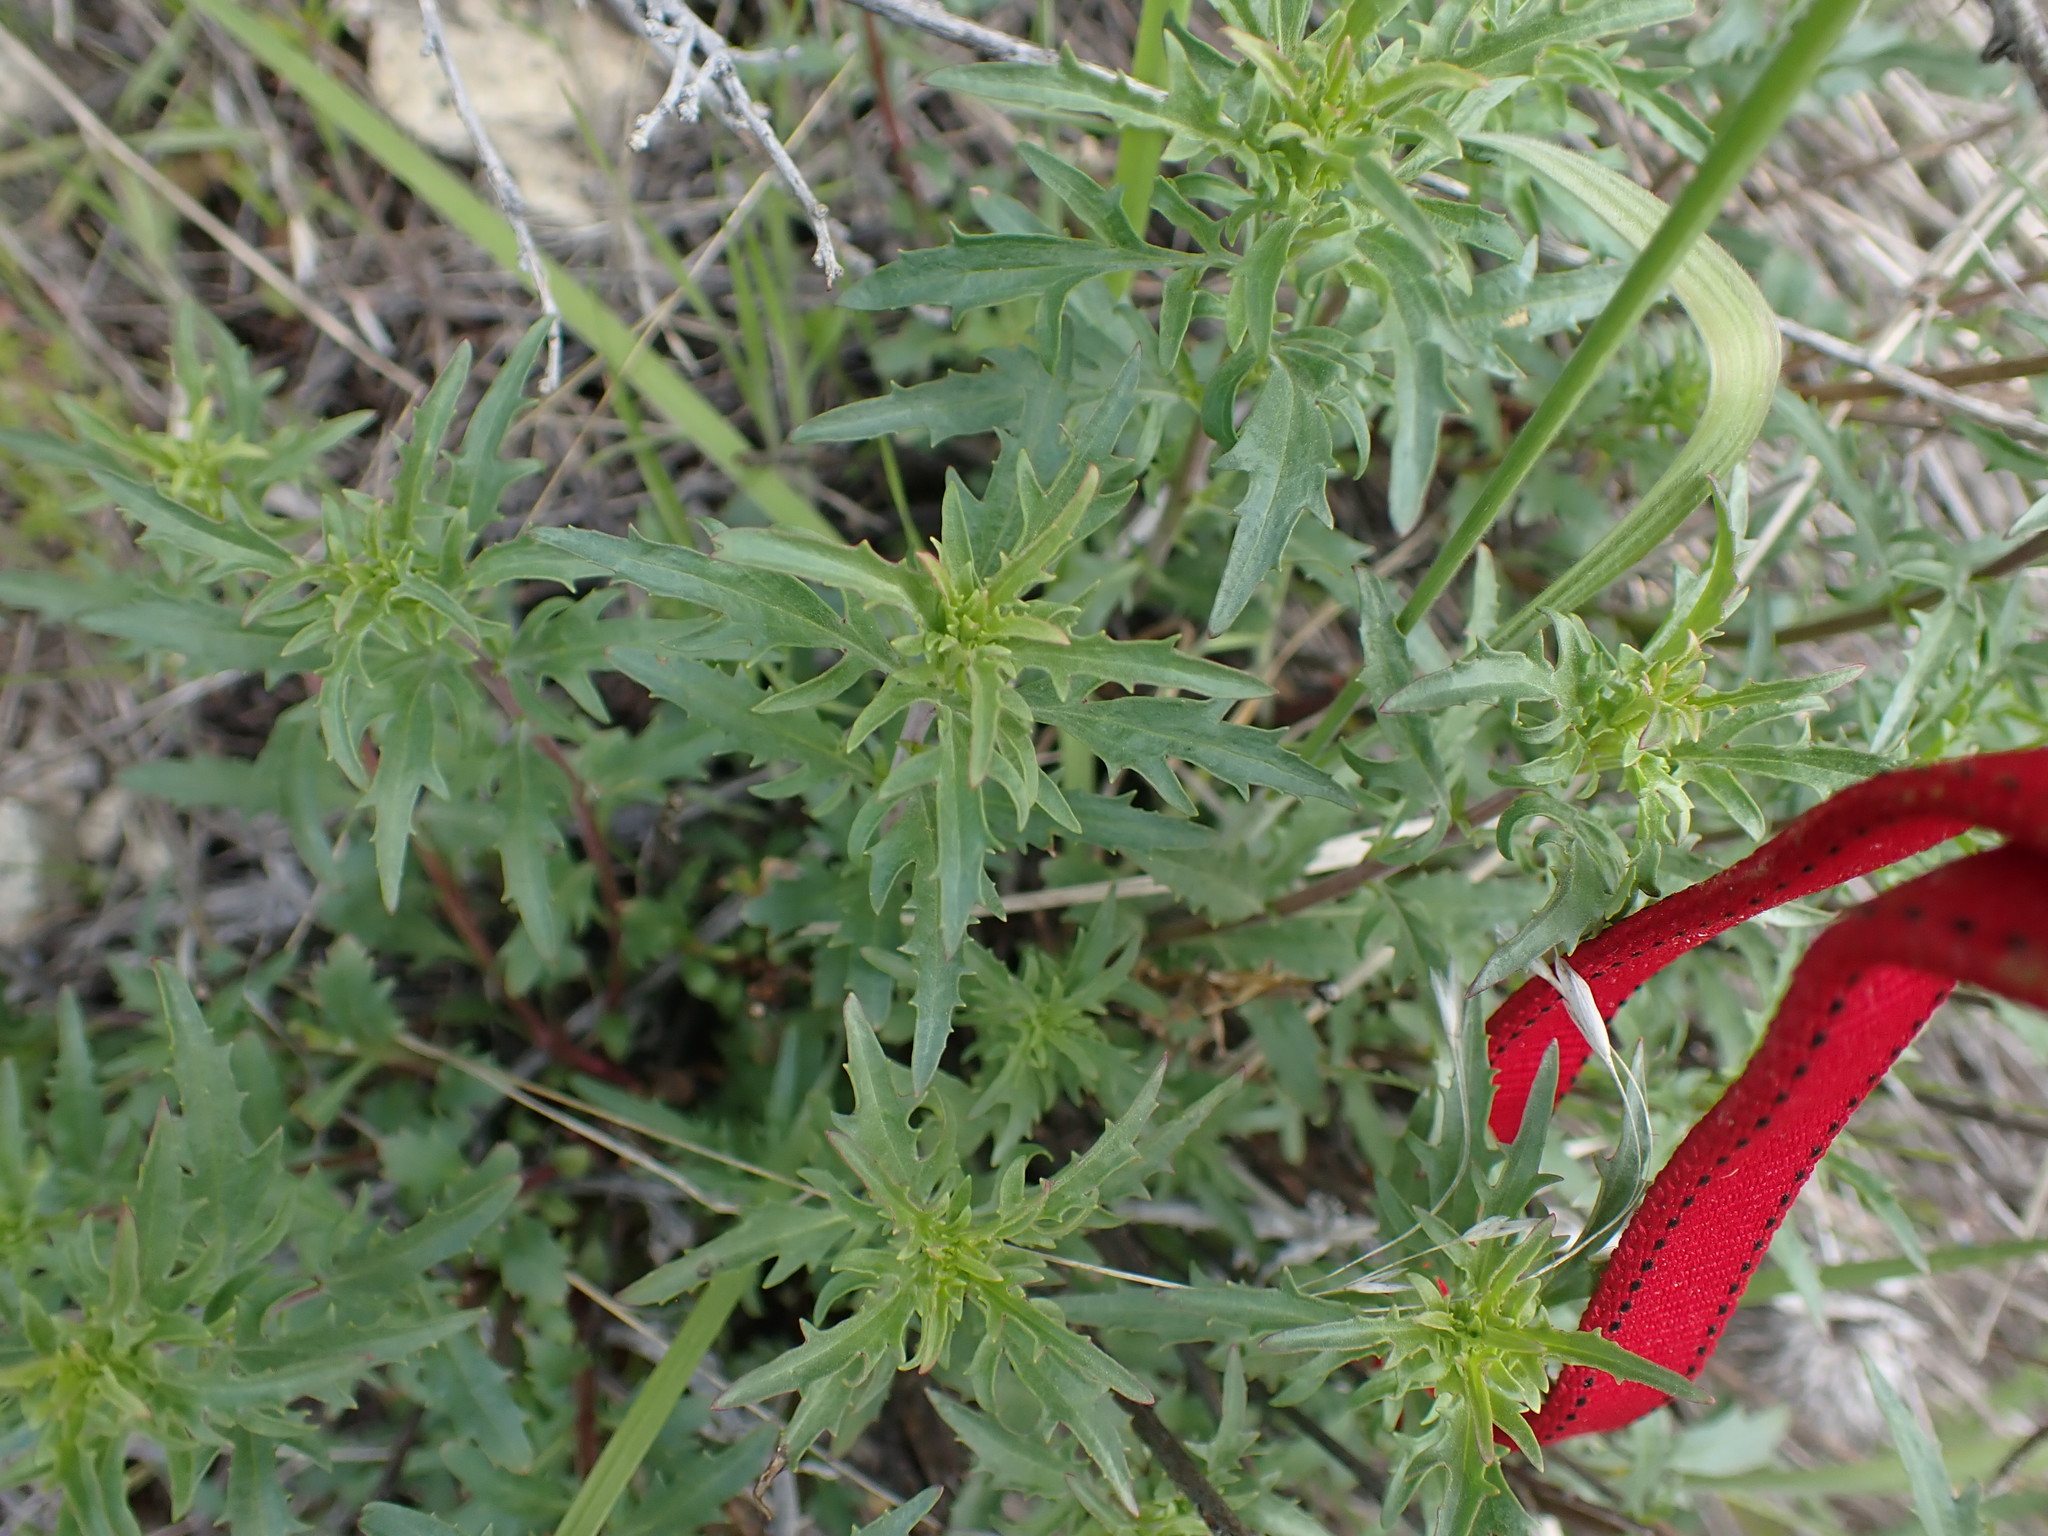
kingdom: Plantae
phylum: Tracheophyta
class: Magnoliopsida
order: Lamiales
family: Plantaginaceae
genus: Penstemon
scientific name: Penstemon richardsonii
